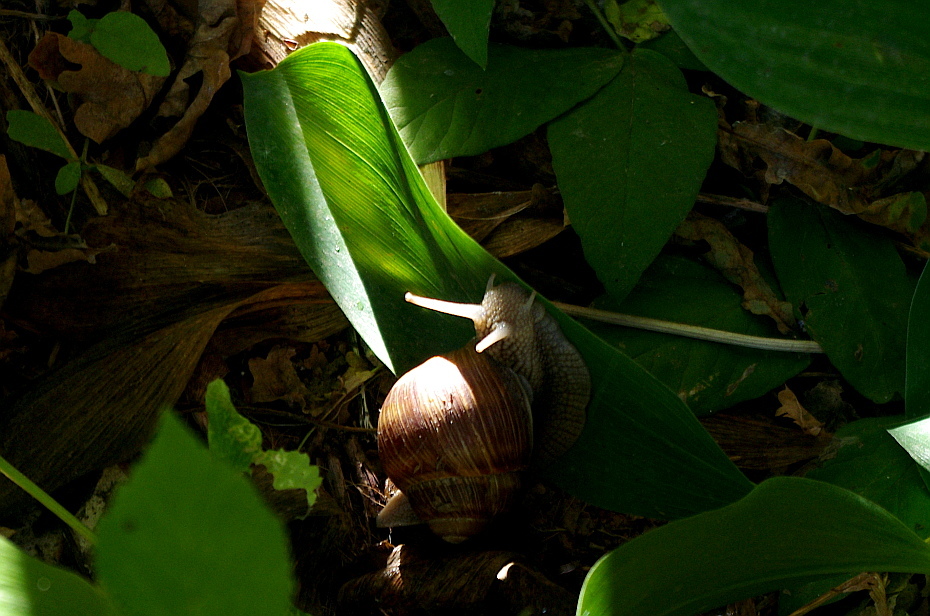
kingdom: Animalia
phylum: Mollusca
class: Gastropoda
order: Stylommatophora
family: Helicidae
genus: Helix
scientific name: Helix pomatia
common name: Roman snail
